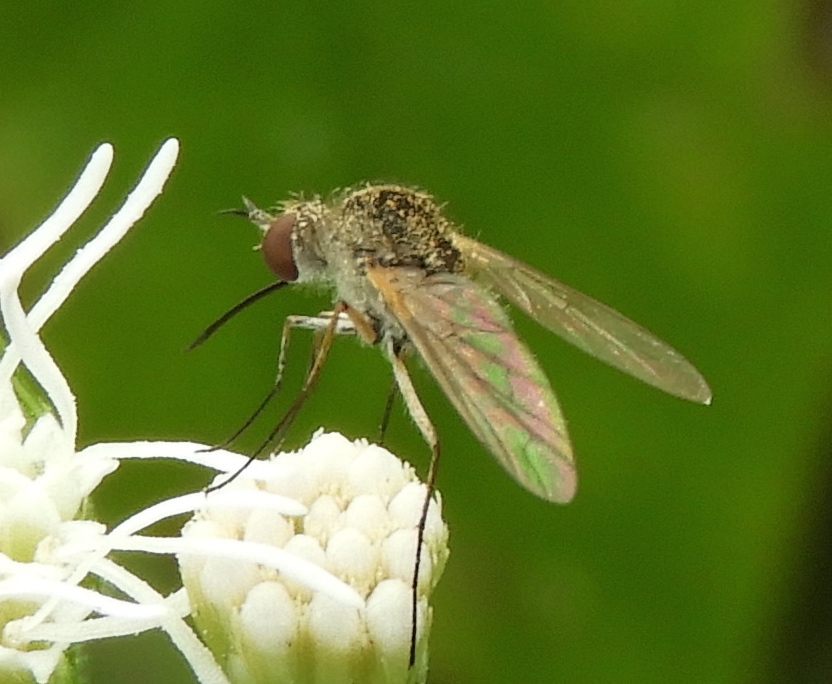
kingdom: Animalia
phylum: Arthropoda
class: Insecta
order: Diptera
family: Bombyliidae
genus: Geron
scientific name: Geron
